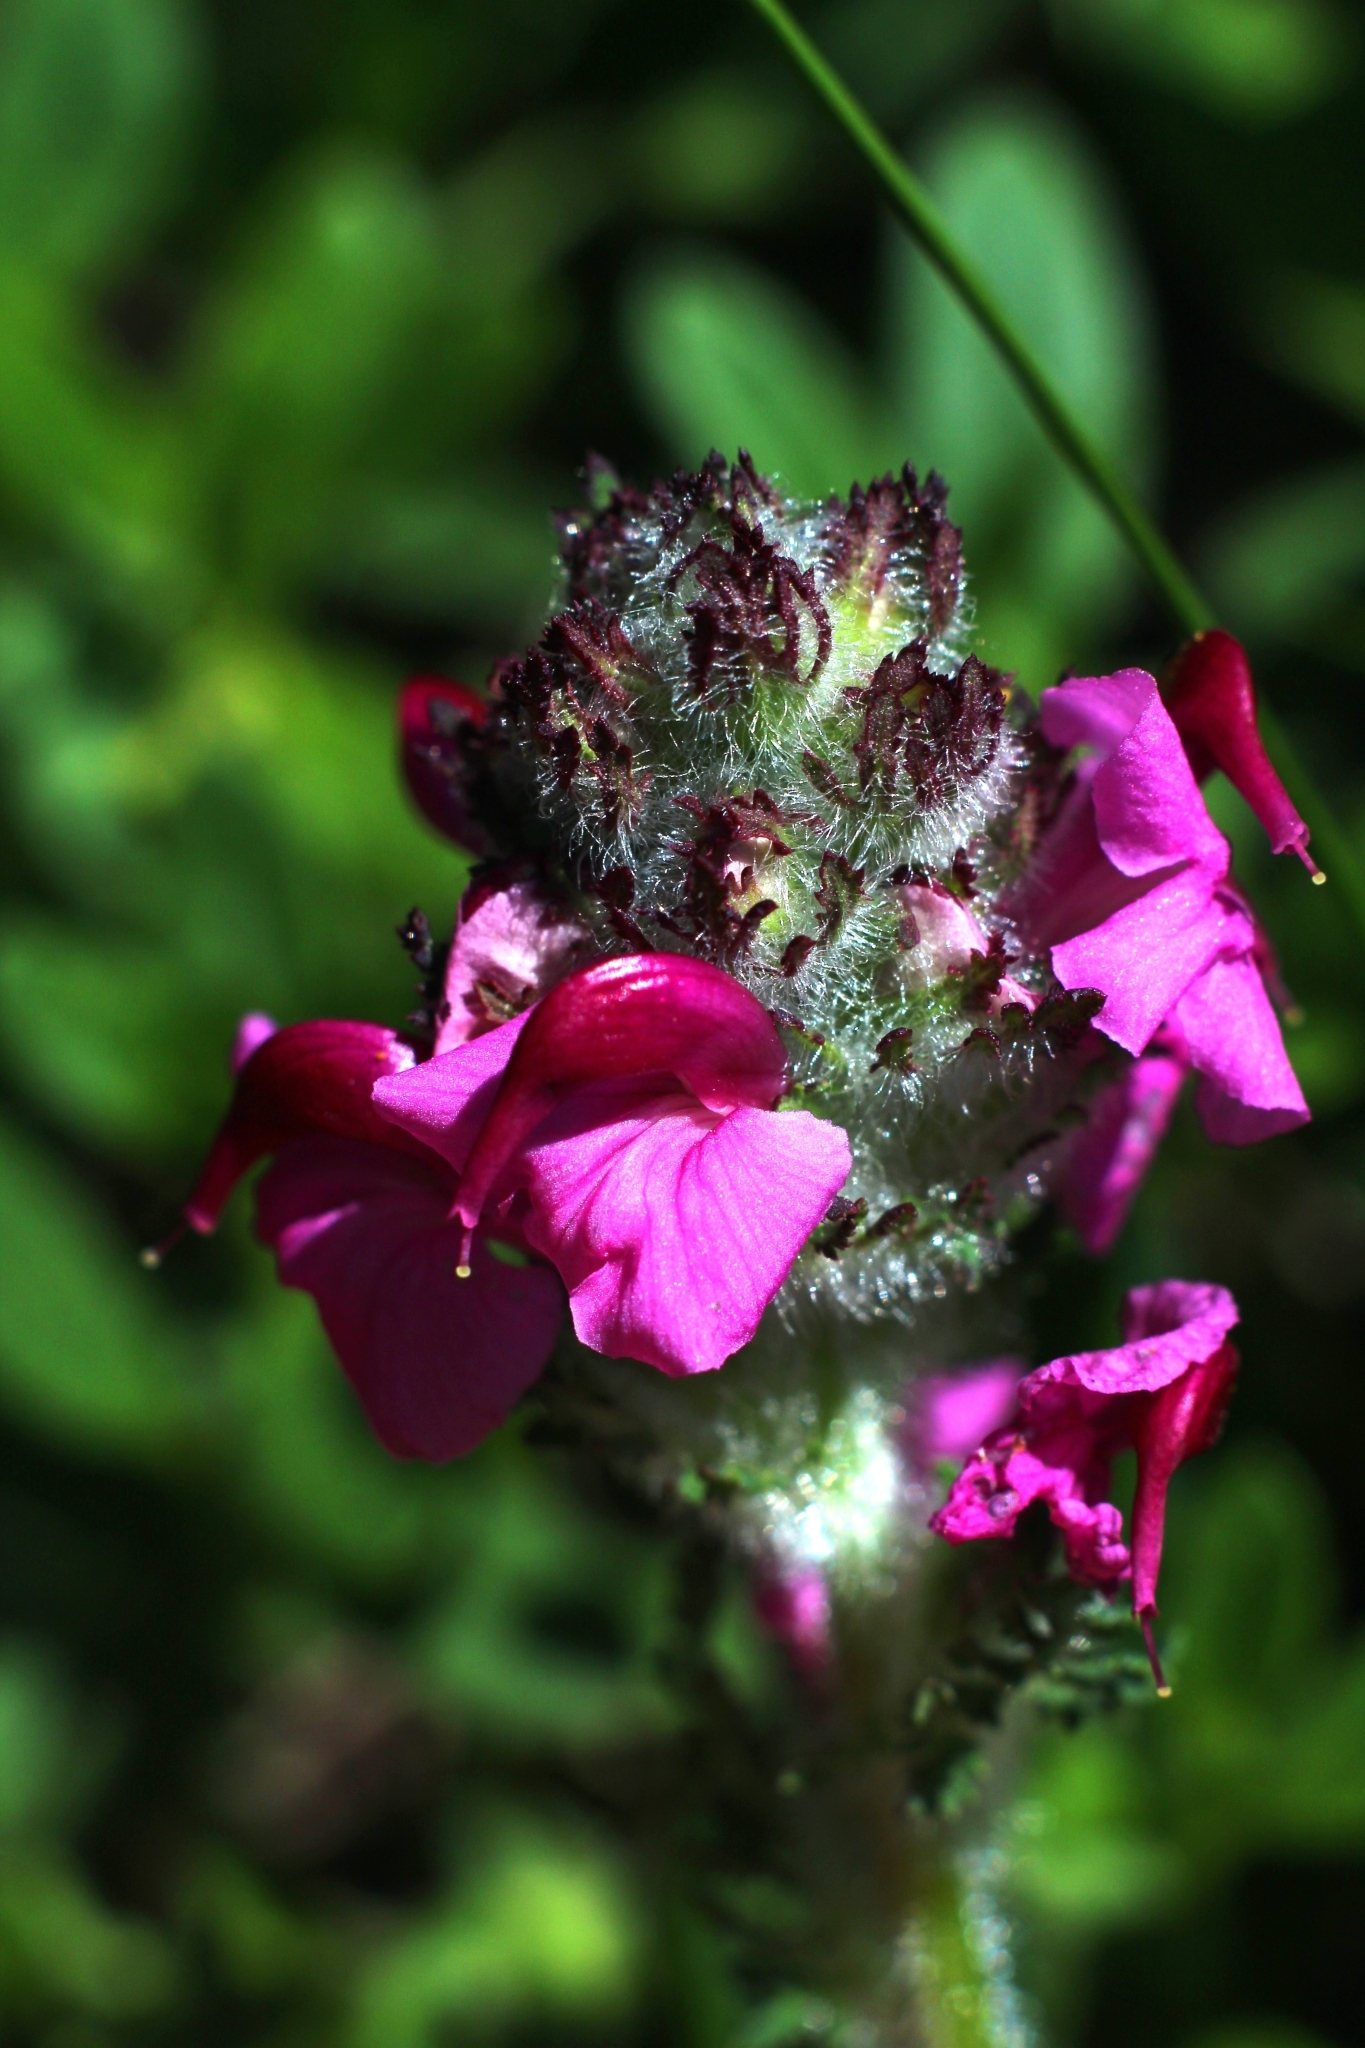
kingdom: Plantae
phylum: Tracheophyta
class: Magnoliopsida
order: Lamiales
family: Orobanchaceae
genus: Pedicularis
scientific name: Pedicularis cenisia
